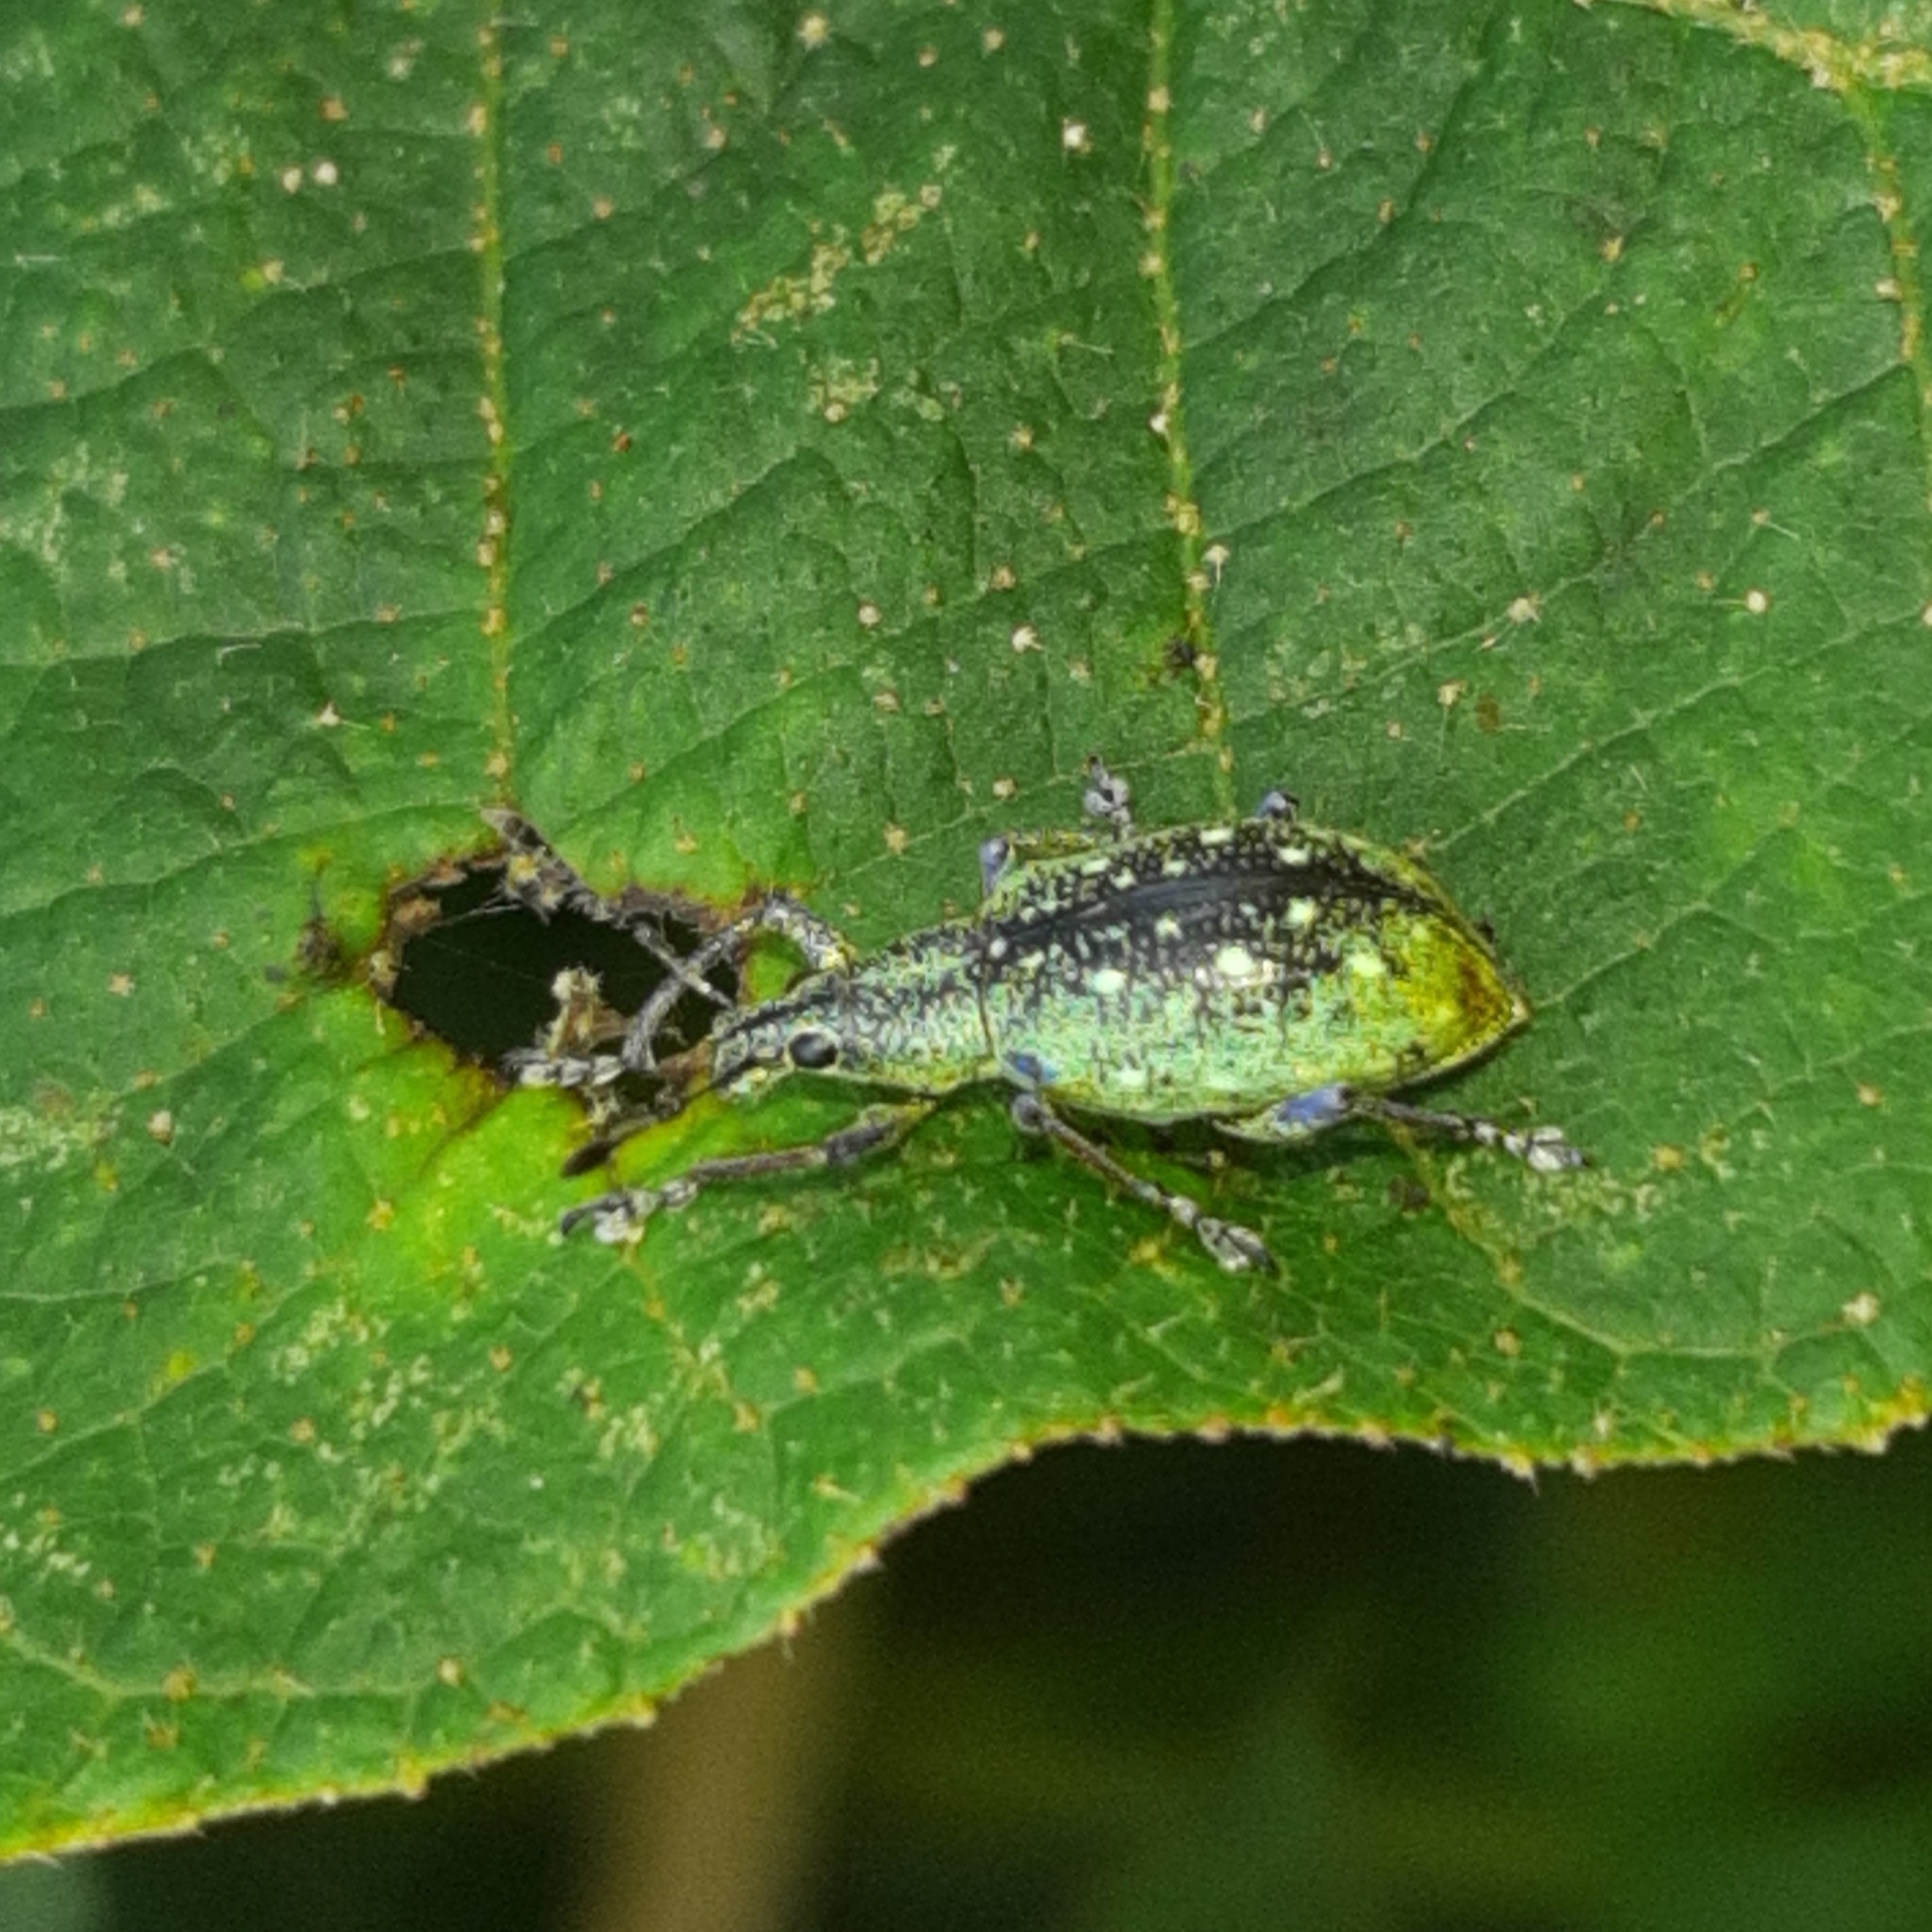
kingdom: Animalia
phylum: Arthropoda
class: Insecta
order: Coleoptera
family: Curculionidae
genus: Exophthalmus
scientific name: Exophthalmus jekelianus
